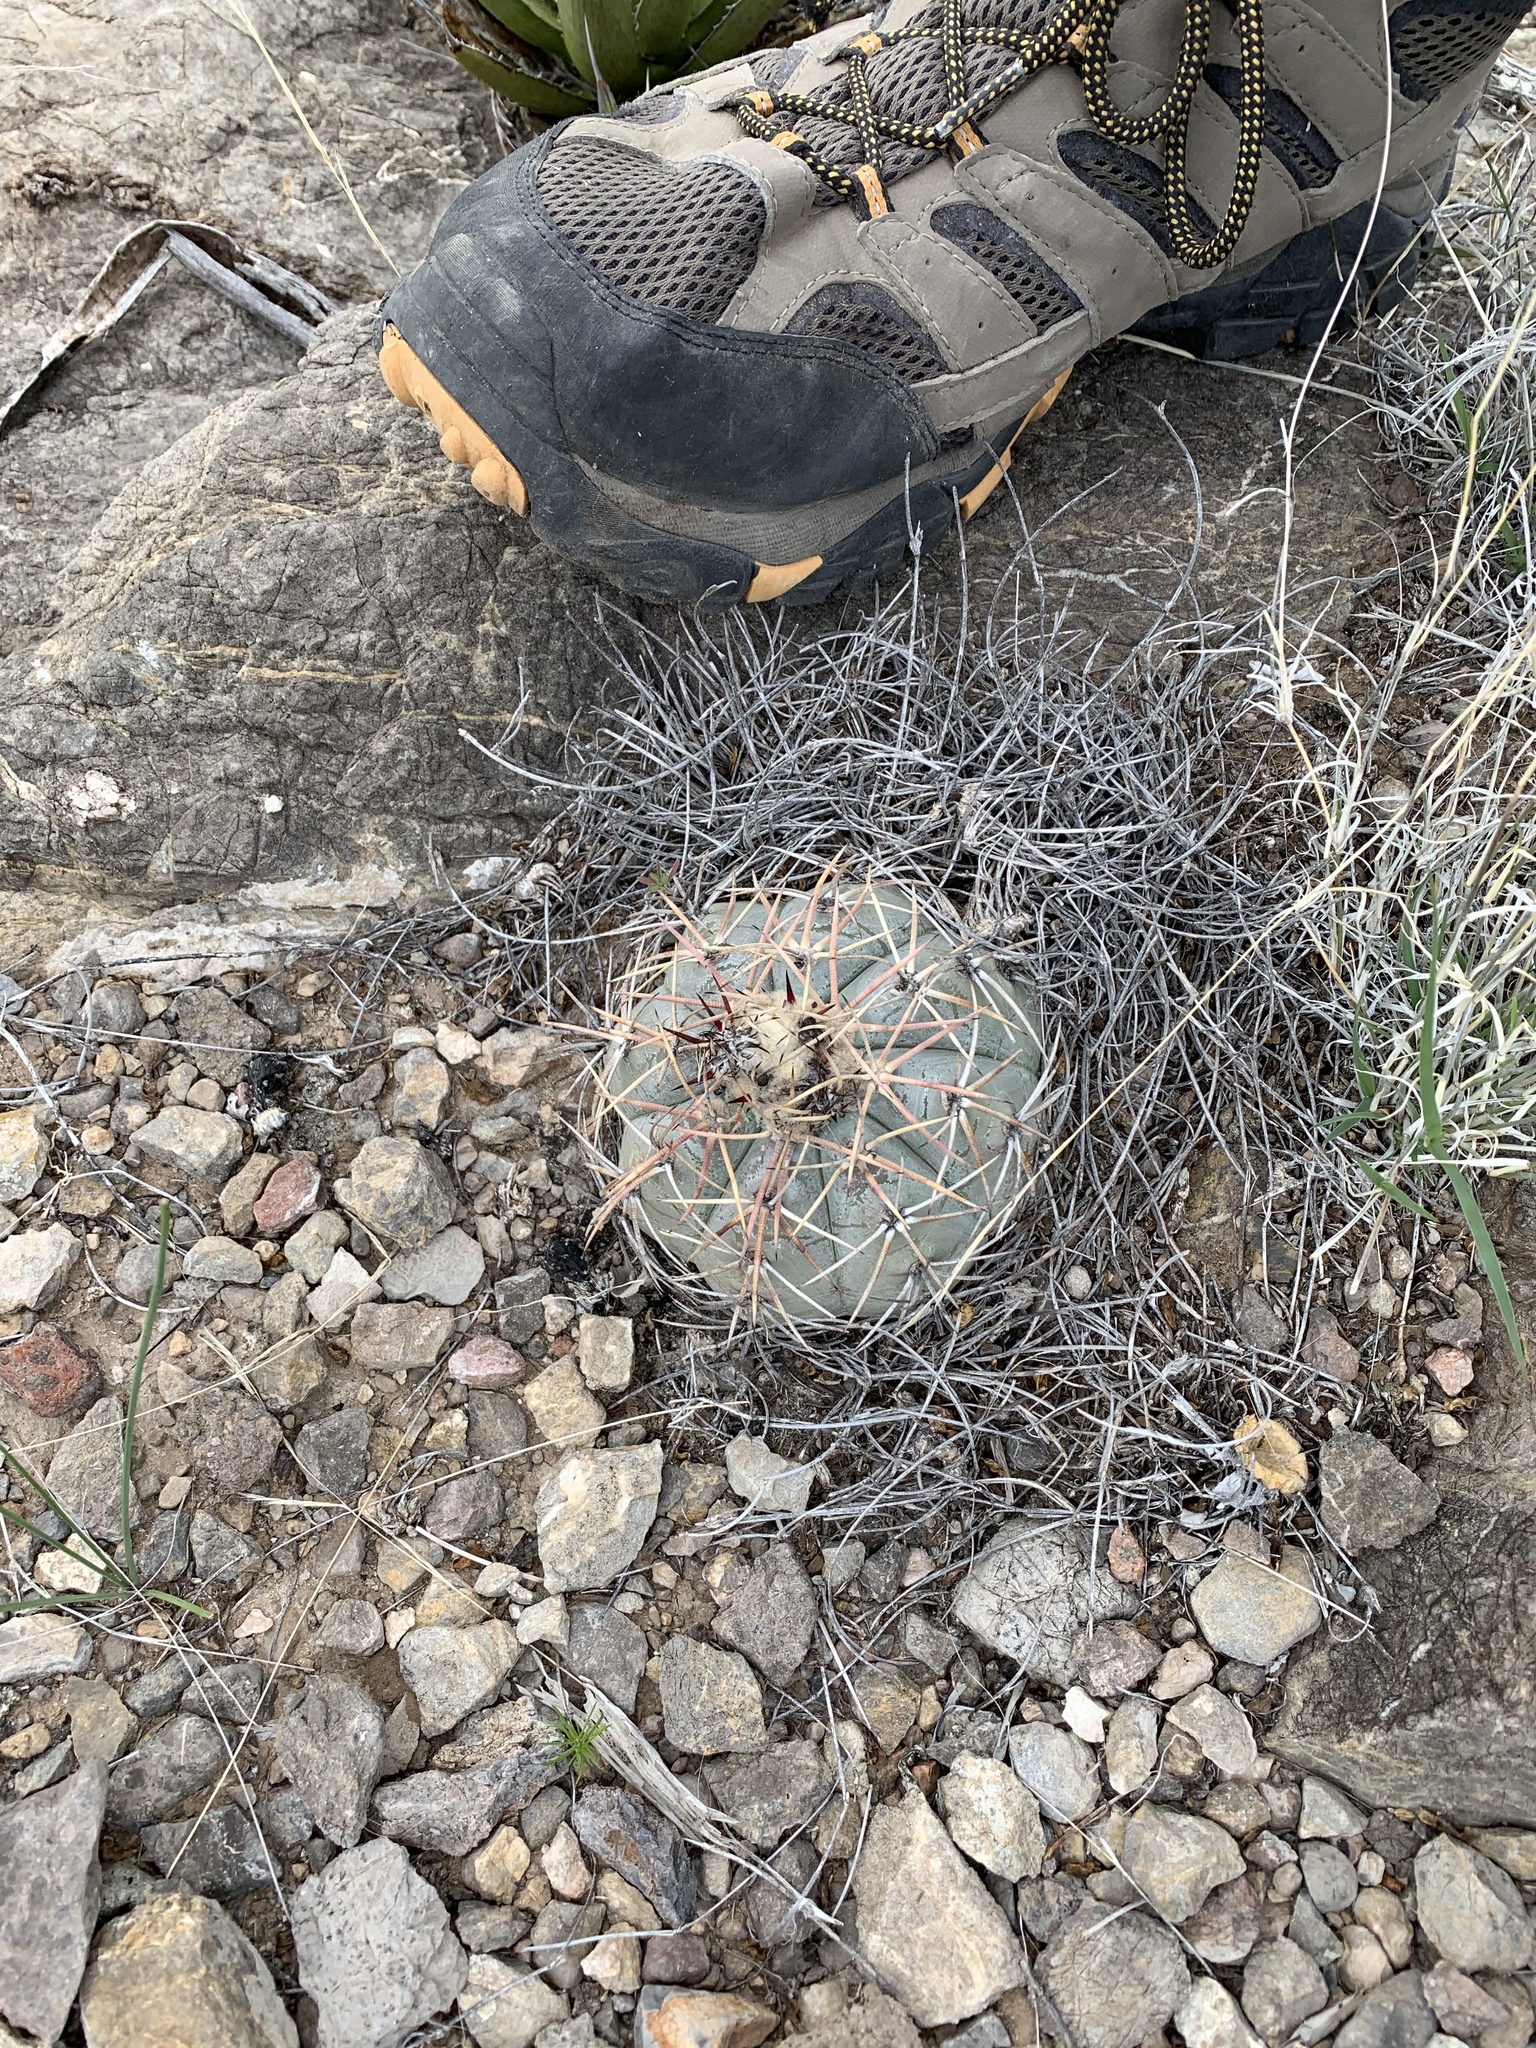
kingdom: Plantae
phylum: Tracheophyta
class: Magnoliopsida
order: Caryophyllales
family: Cactaceae
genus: Echinocactus
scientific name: Echinocactus horizonthalonius
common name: Devilshead
